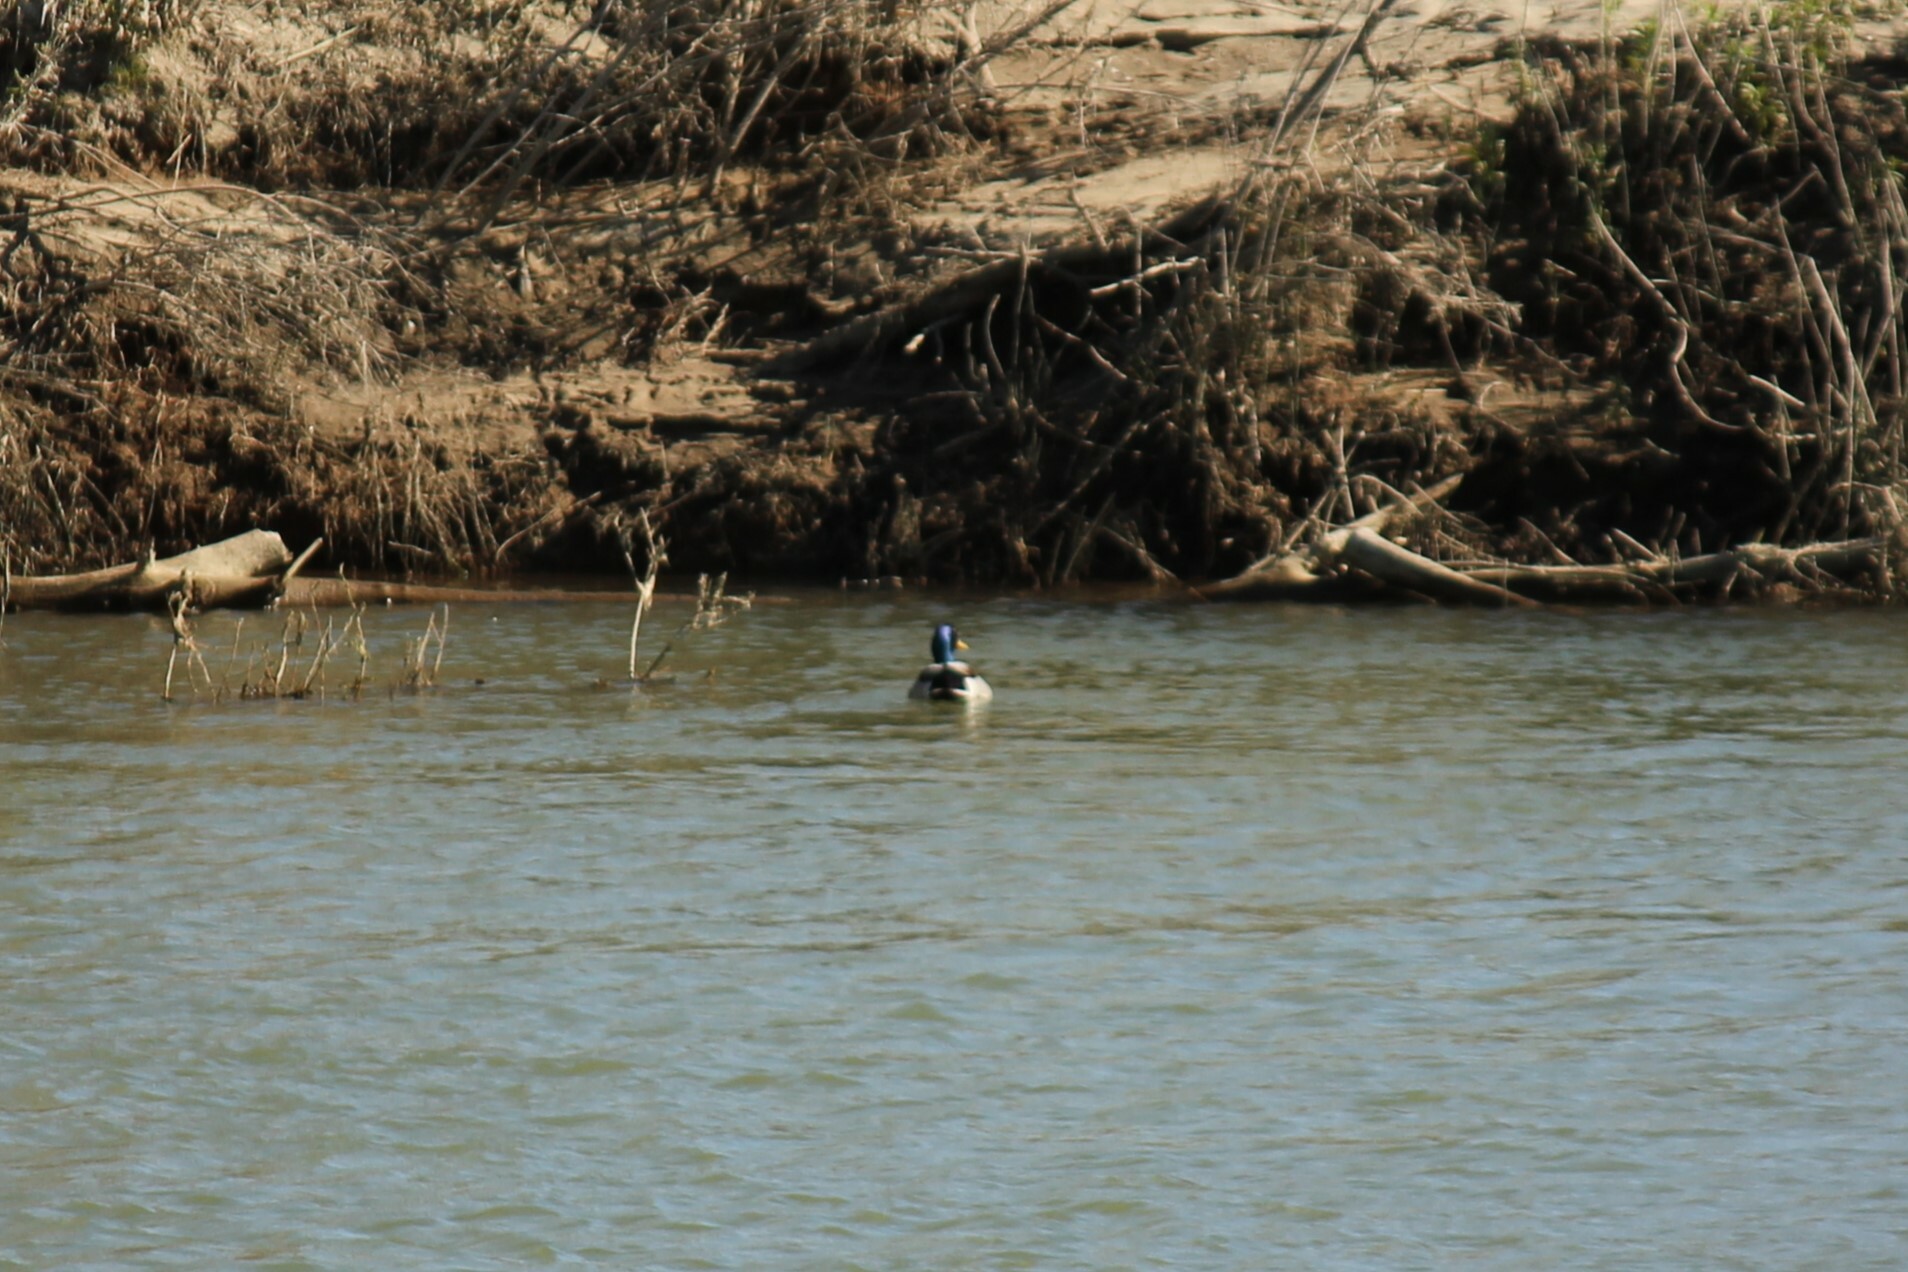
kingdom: Animalia
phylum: Chordata
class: Aves
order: Anseriformes
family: Anatidae
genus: Anas
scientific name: Anas platyrhynchos
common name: Mallard
